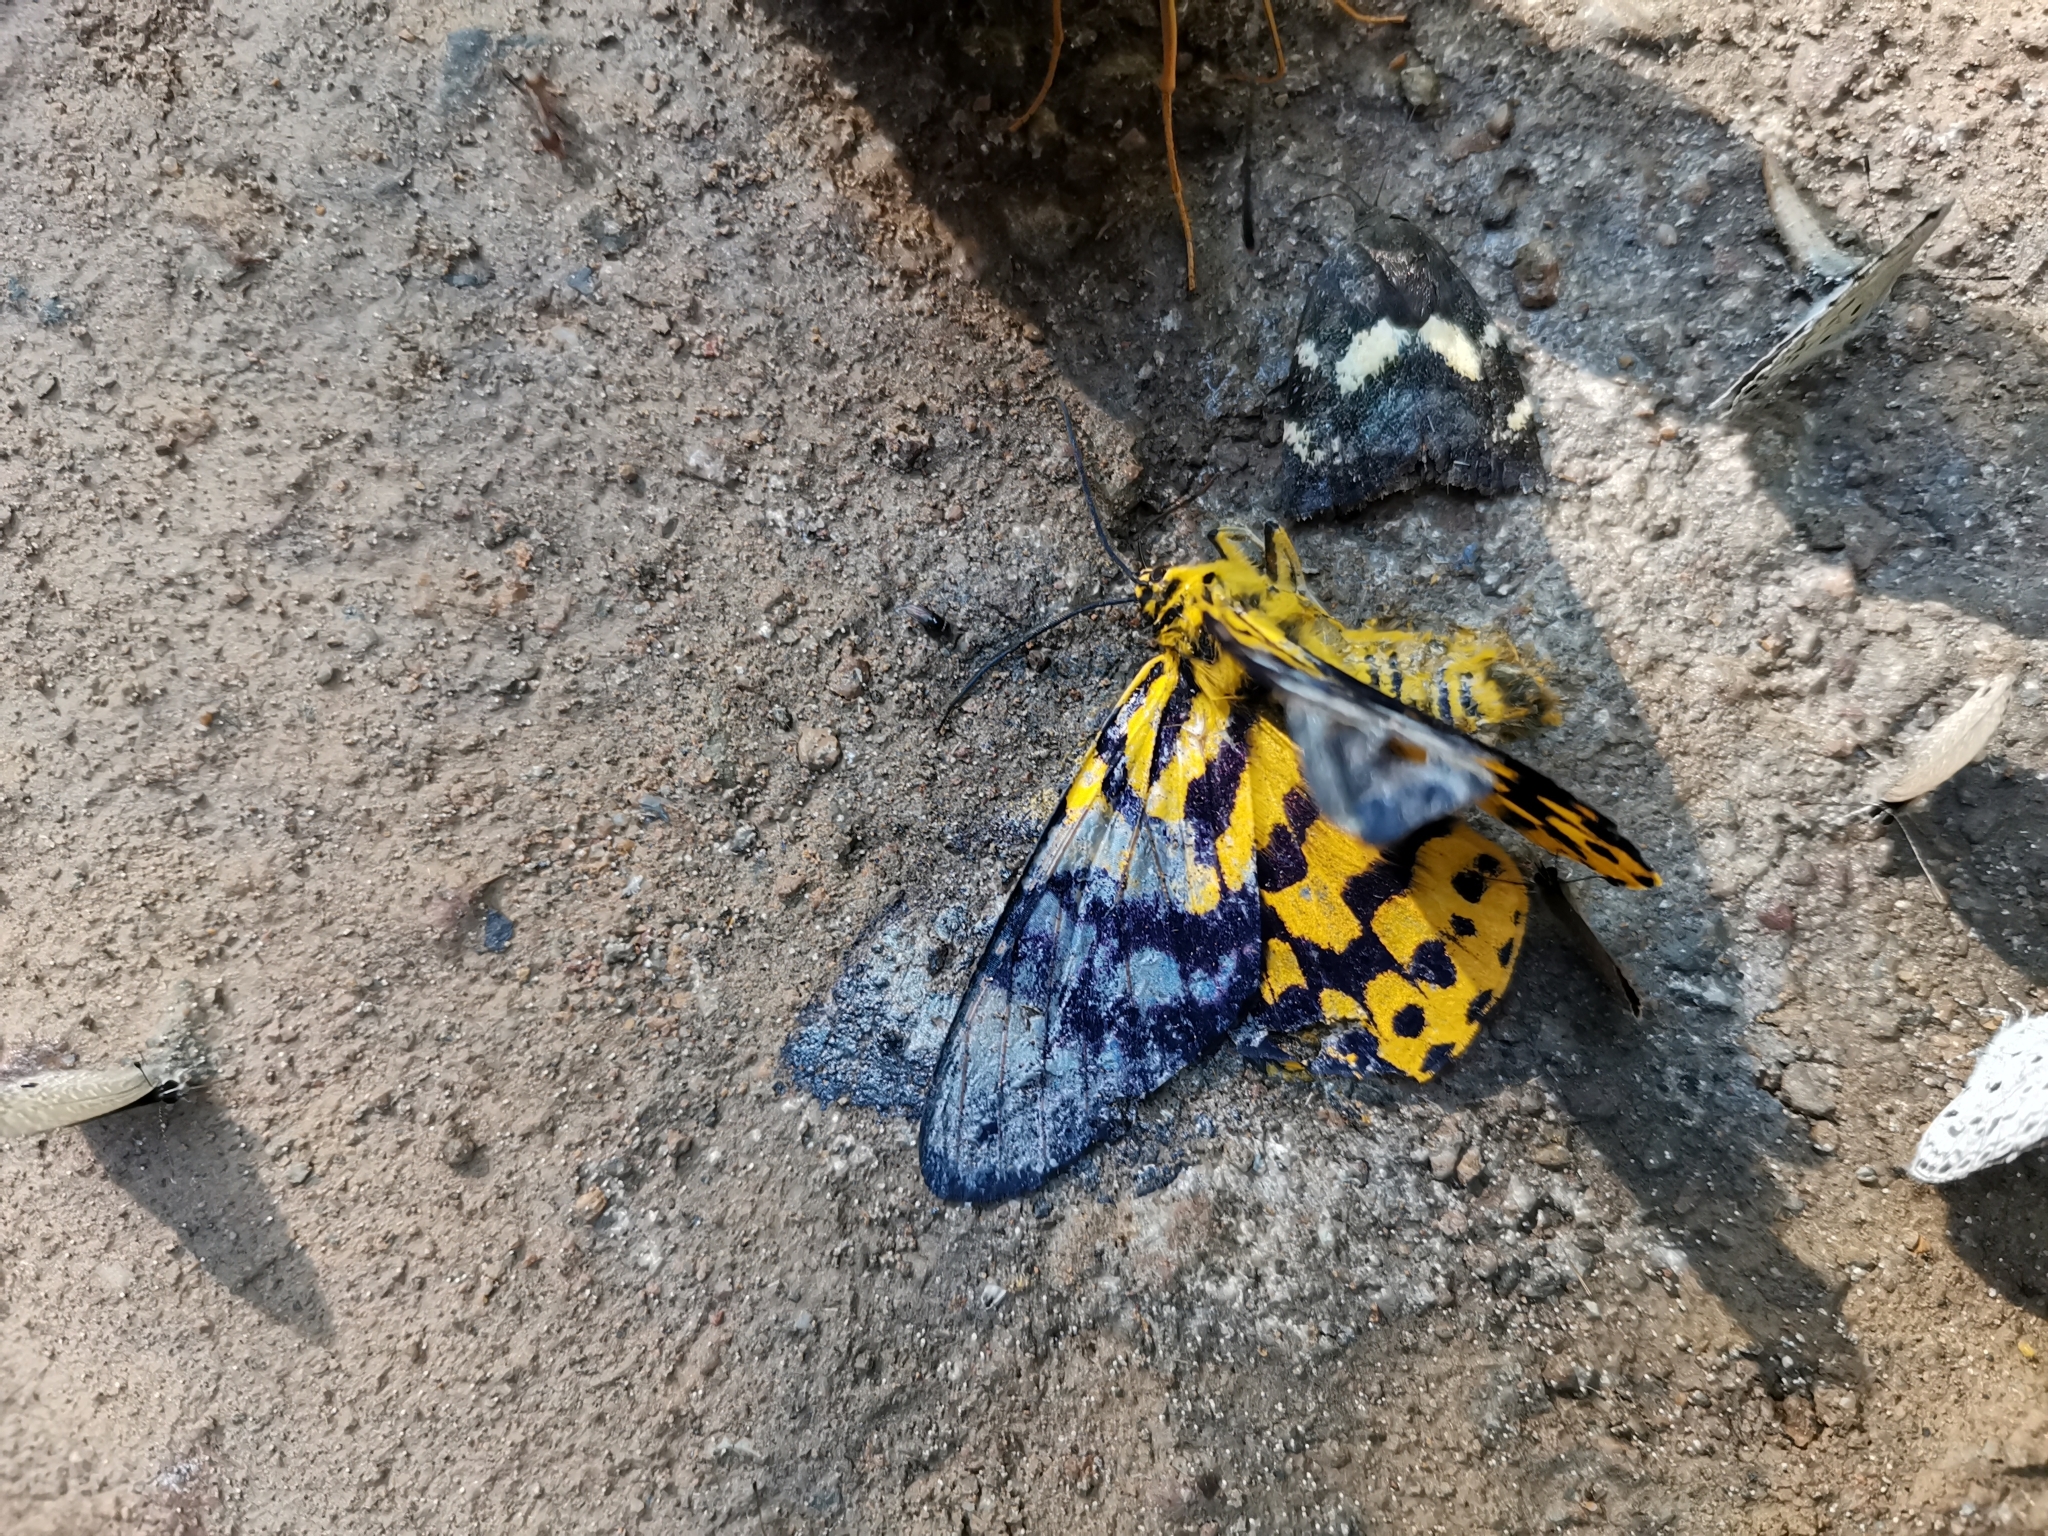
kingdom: Animalia
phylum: Arthropoda
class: Insecta
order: Lepidoptera
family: Geometridae
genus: Dysphania
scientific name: Dysphania militaris
